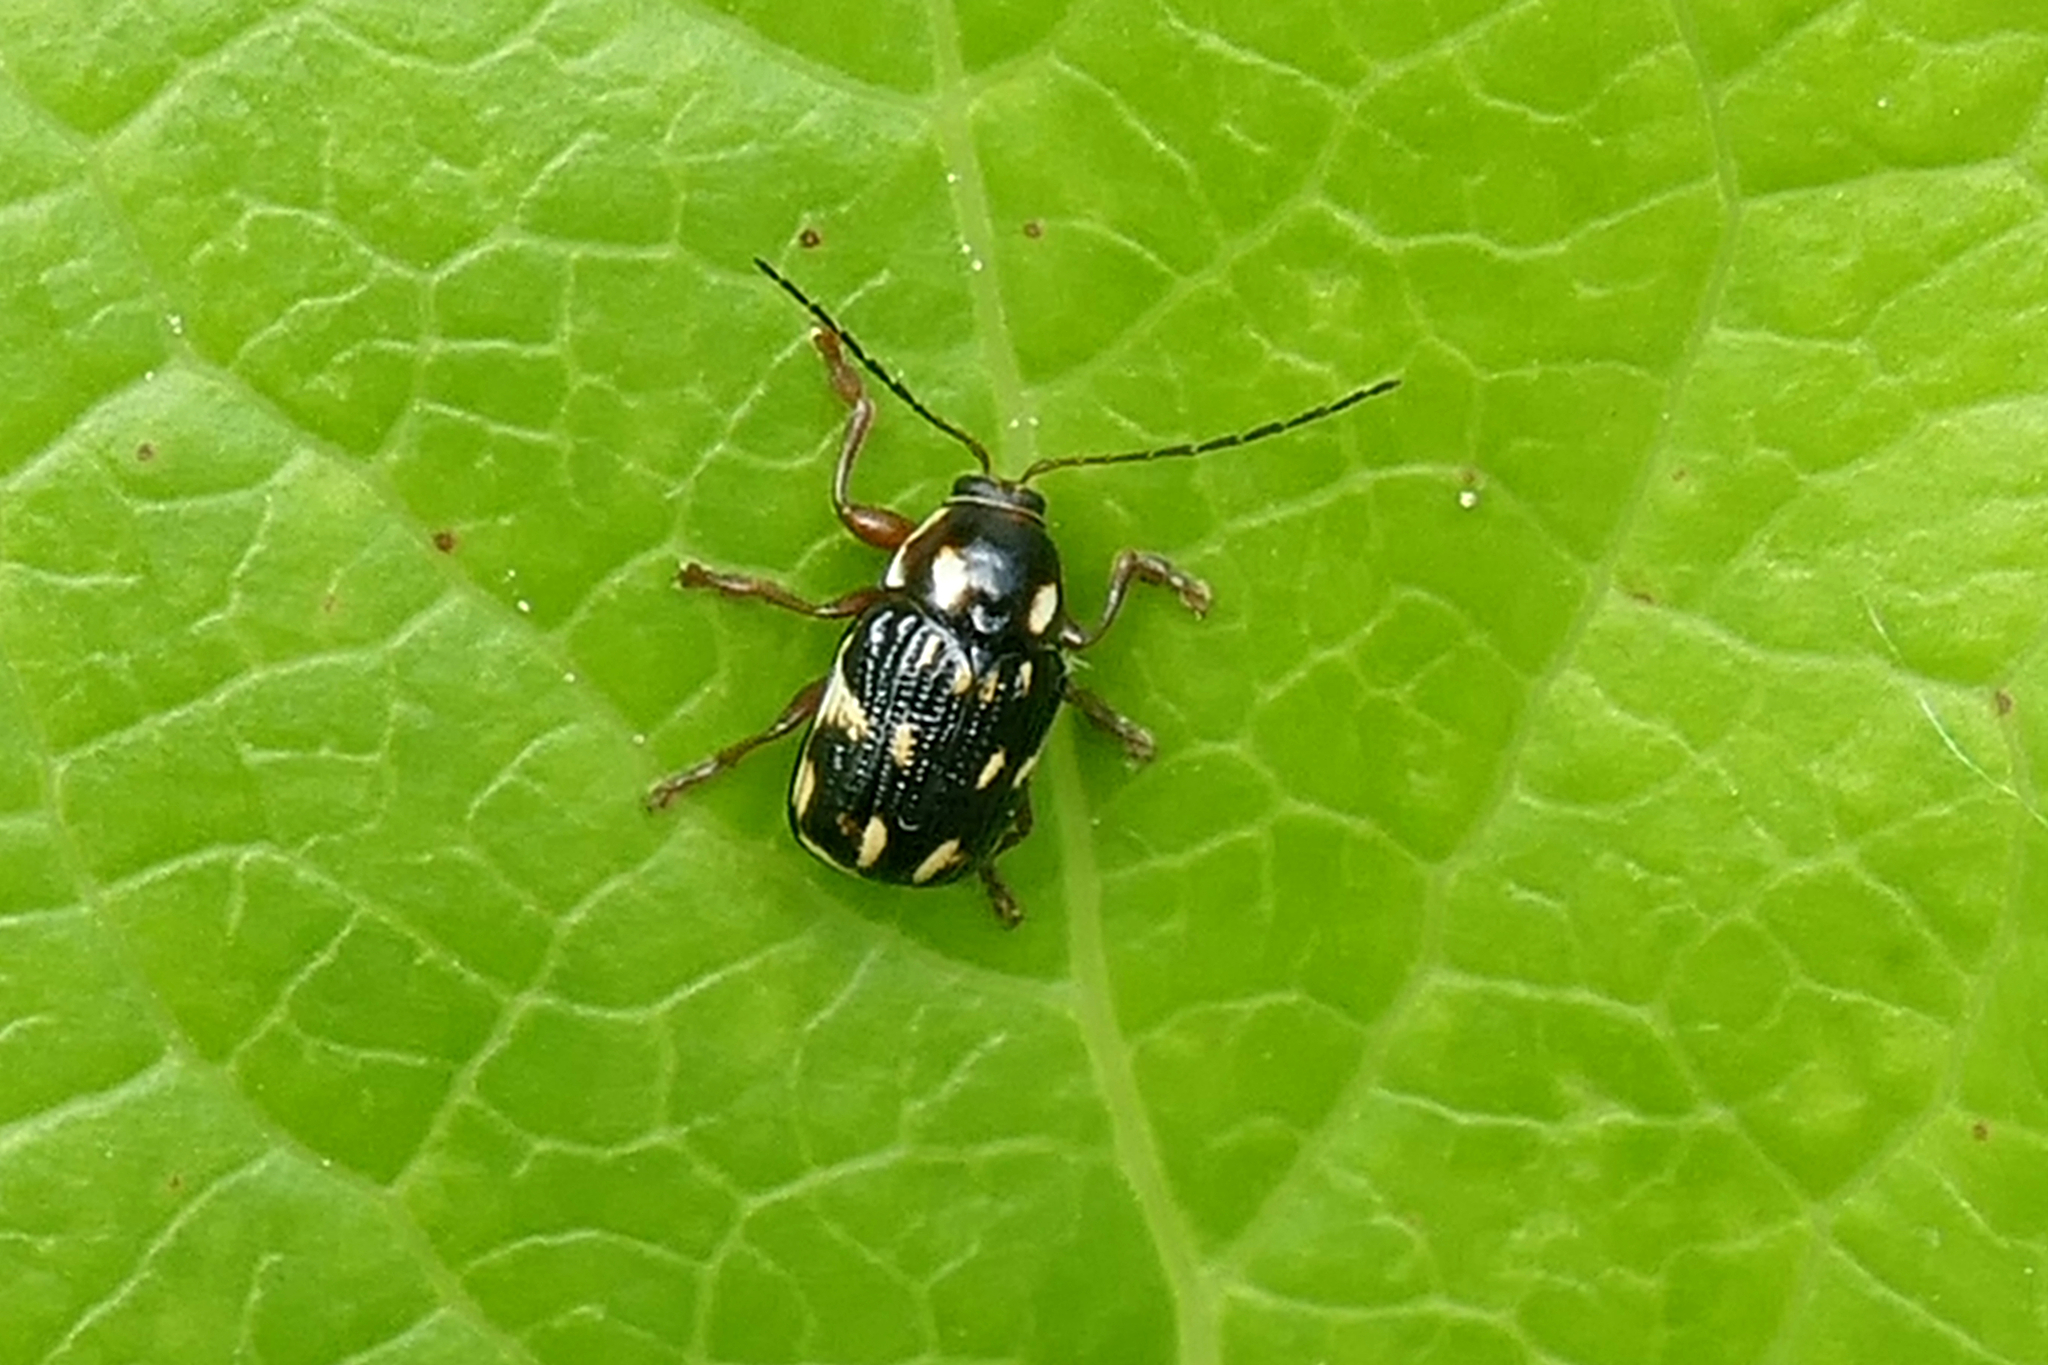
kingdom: Animalia
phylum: Arthropoda
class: Insecta
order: Coleoptera
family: Chrysomelidae
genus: Bassareus
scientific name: Bassareus clathratus
